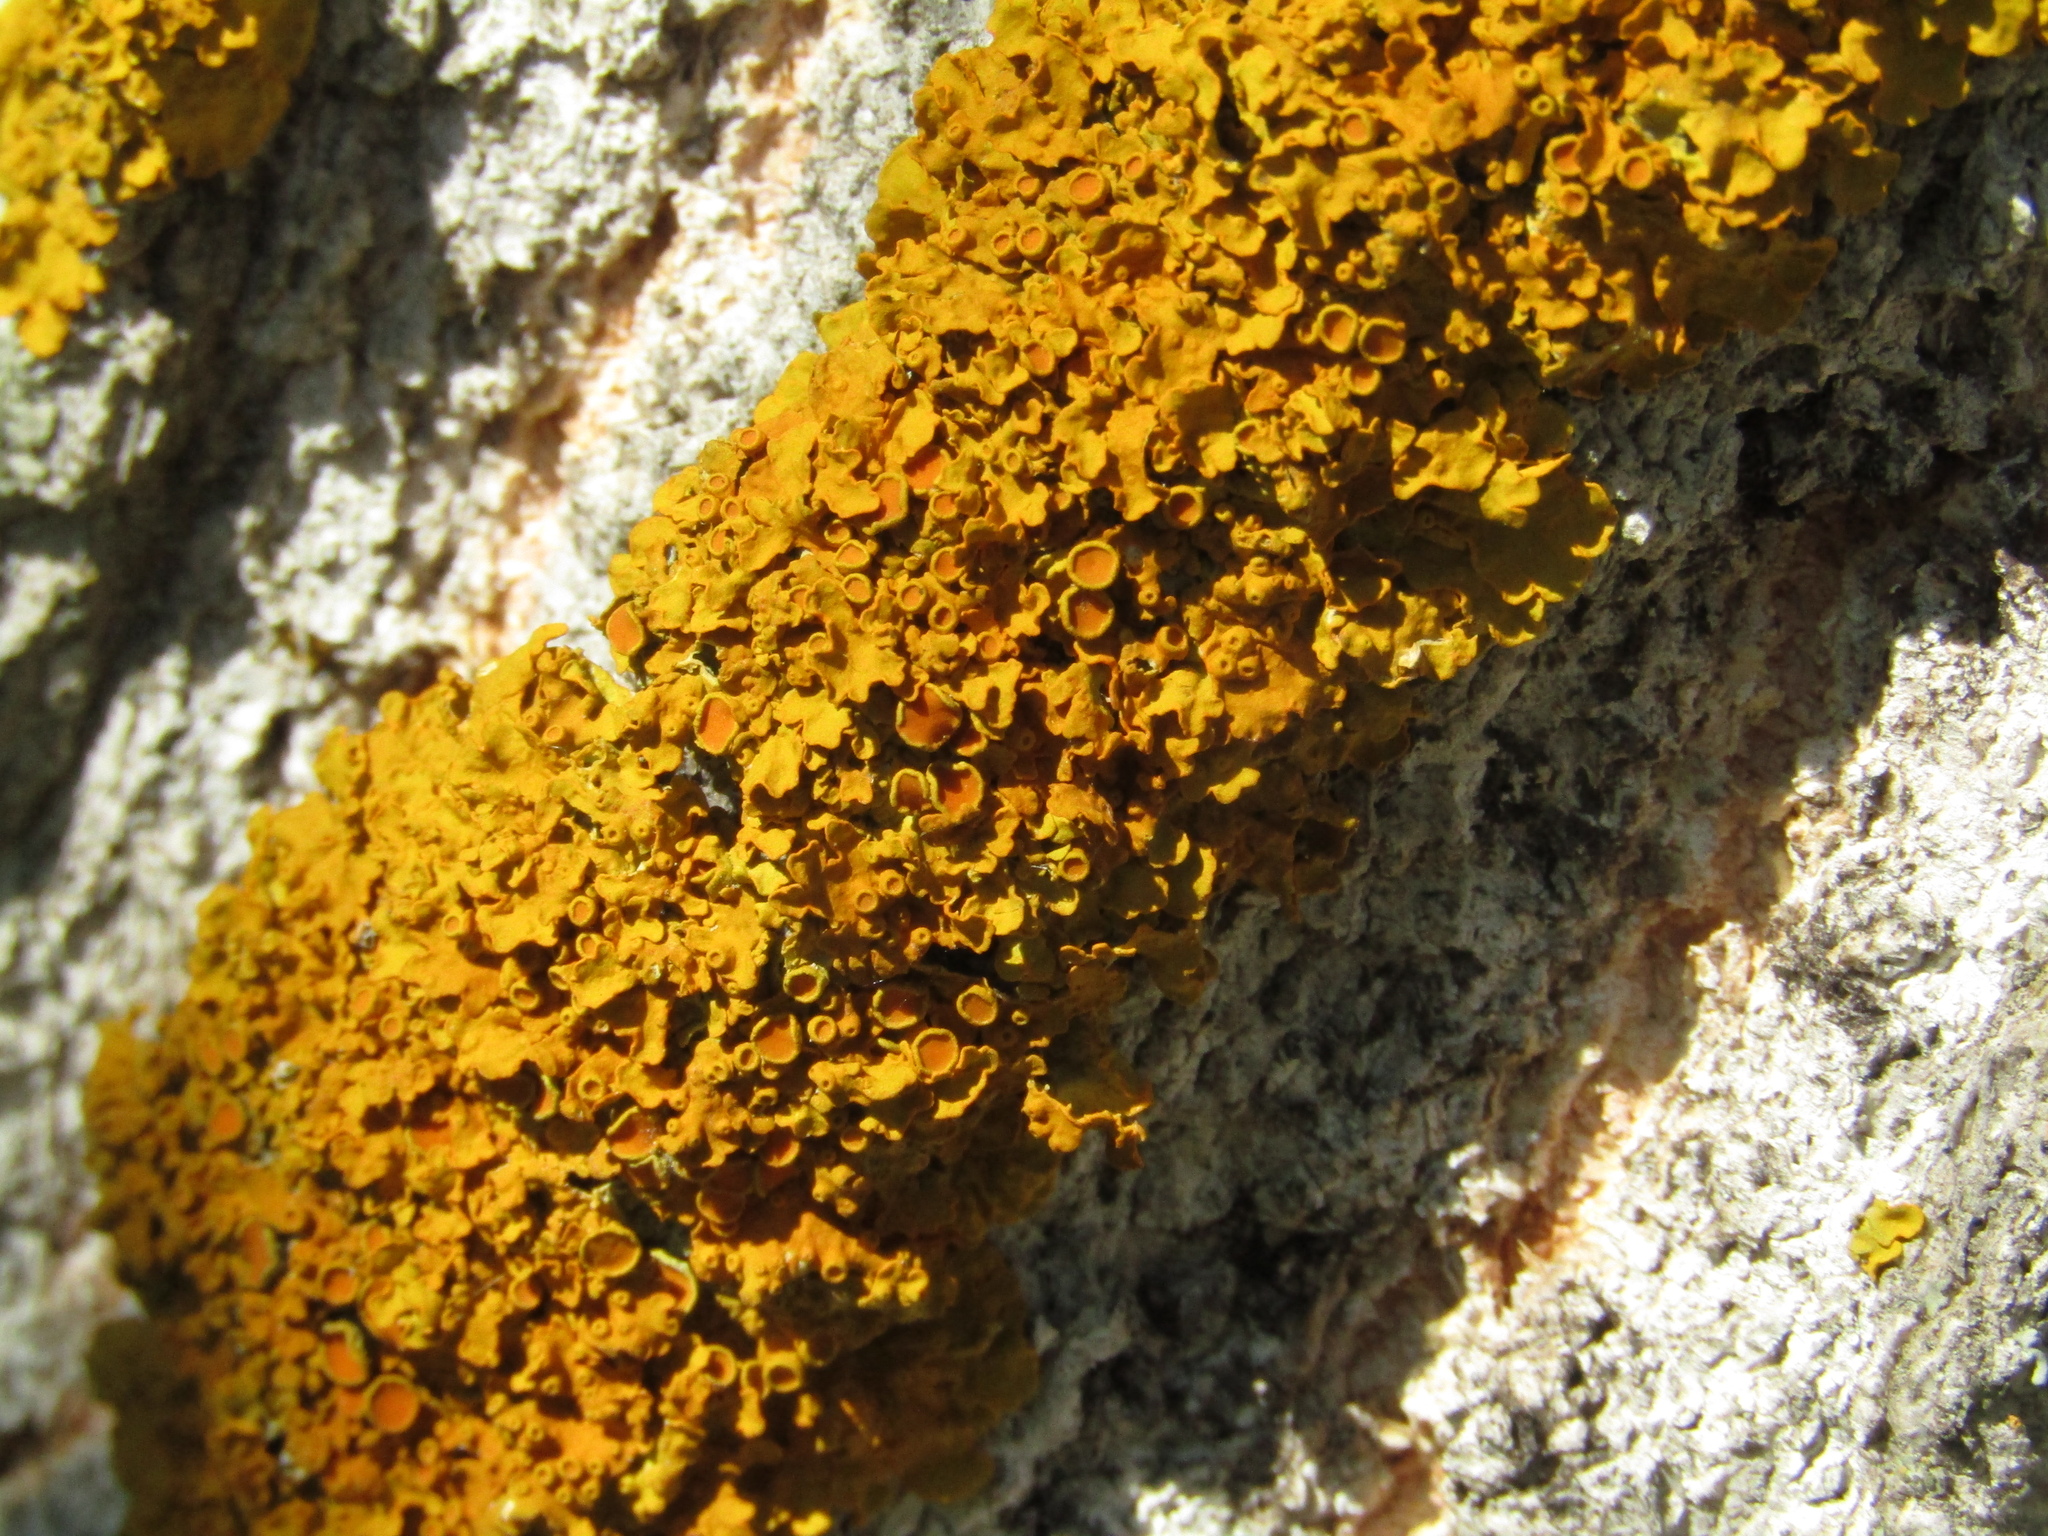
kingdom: Fungi
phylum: Ascomycota
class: Lecanoromycetes
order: Teloschistales
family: Teloschistaceae
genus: Xanthoria
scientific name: Xanthoria parietina
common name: Common orange lichen
